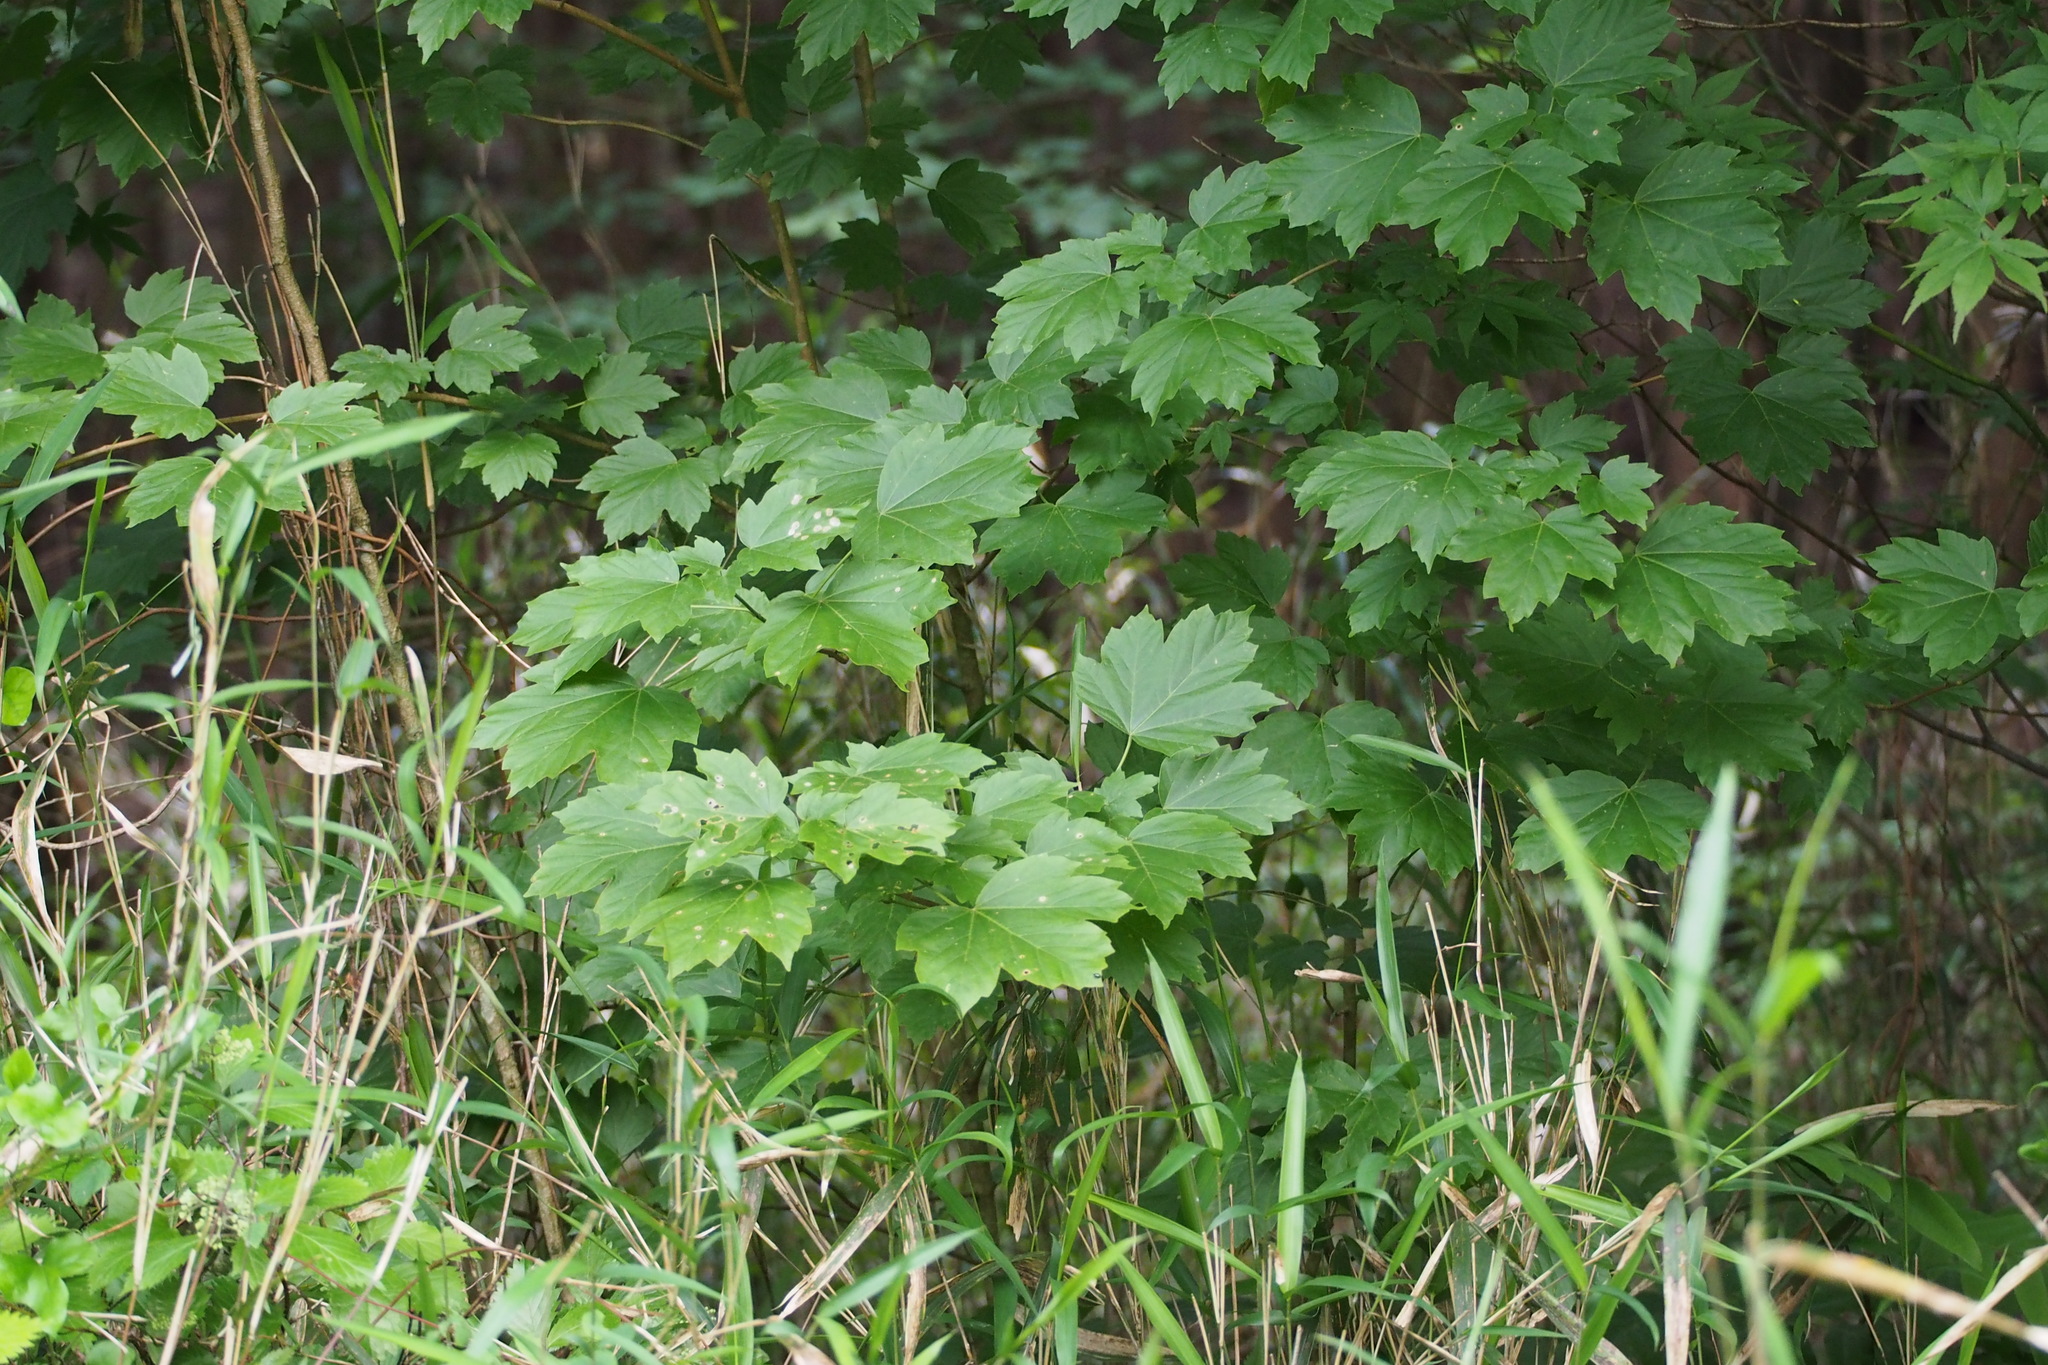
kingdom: Plantae
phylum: Tracheophyta
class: Magnoliopsida
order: Sapindales
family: Sapindaceae
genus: Acer
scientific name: Acer diabolicum
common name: Devil maple
